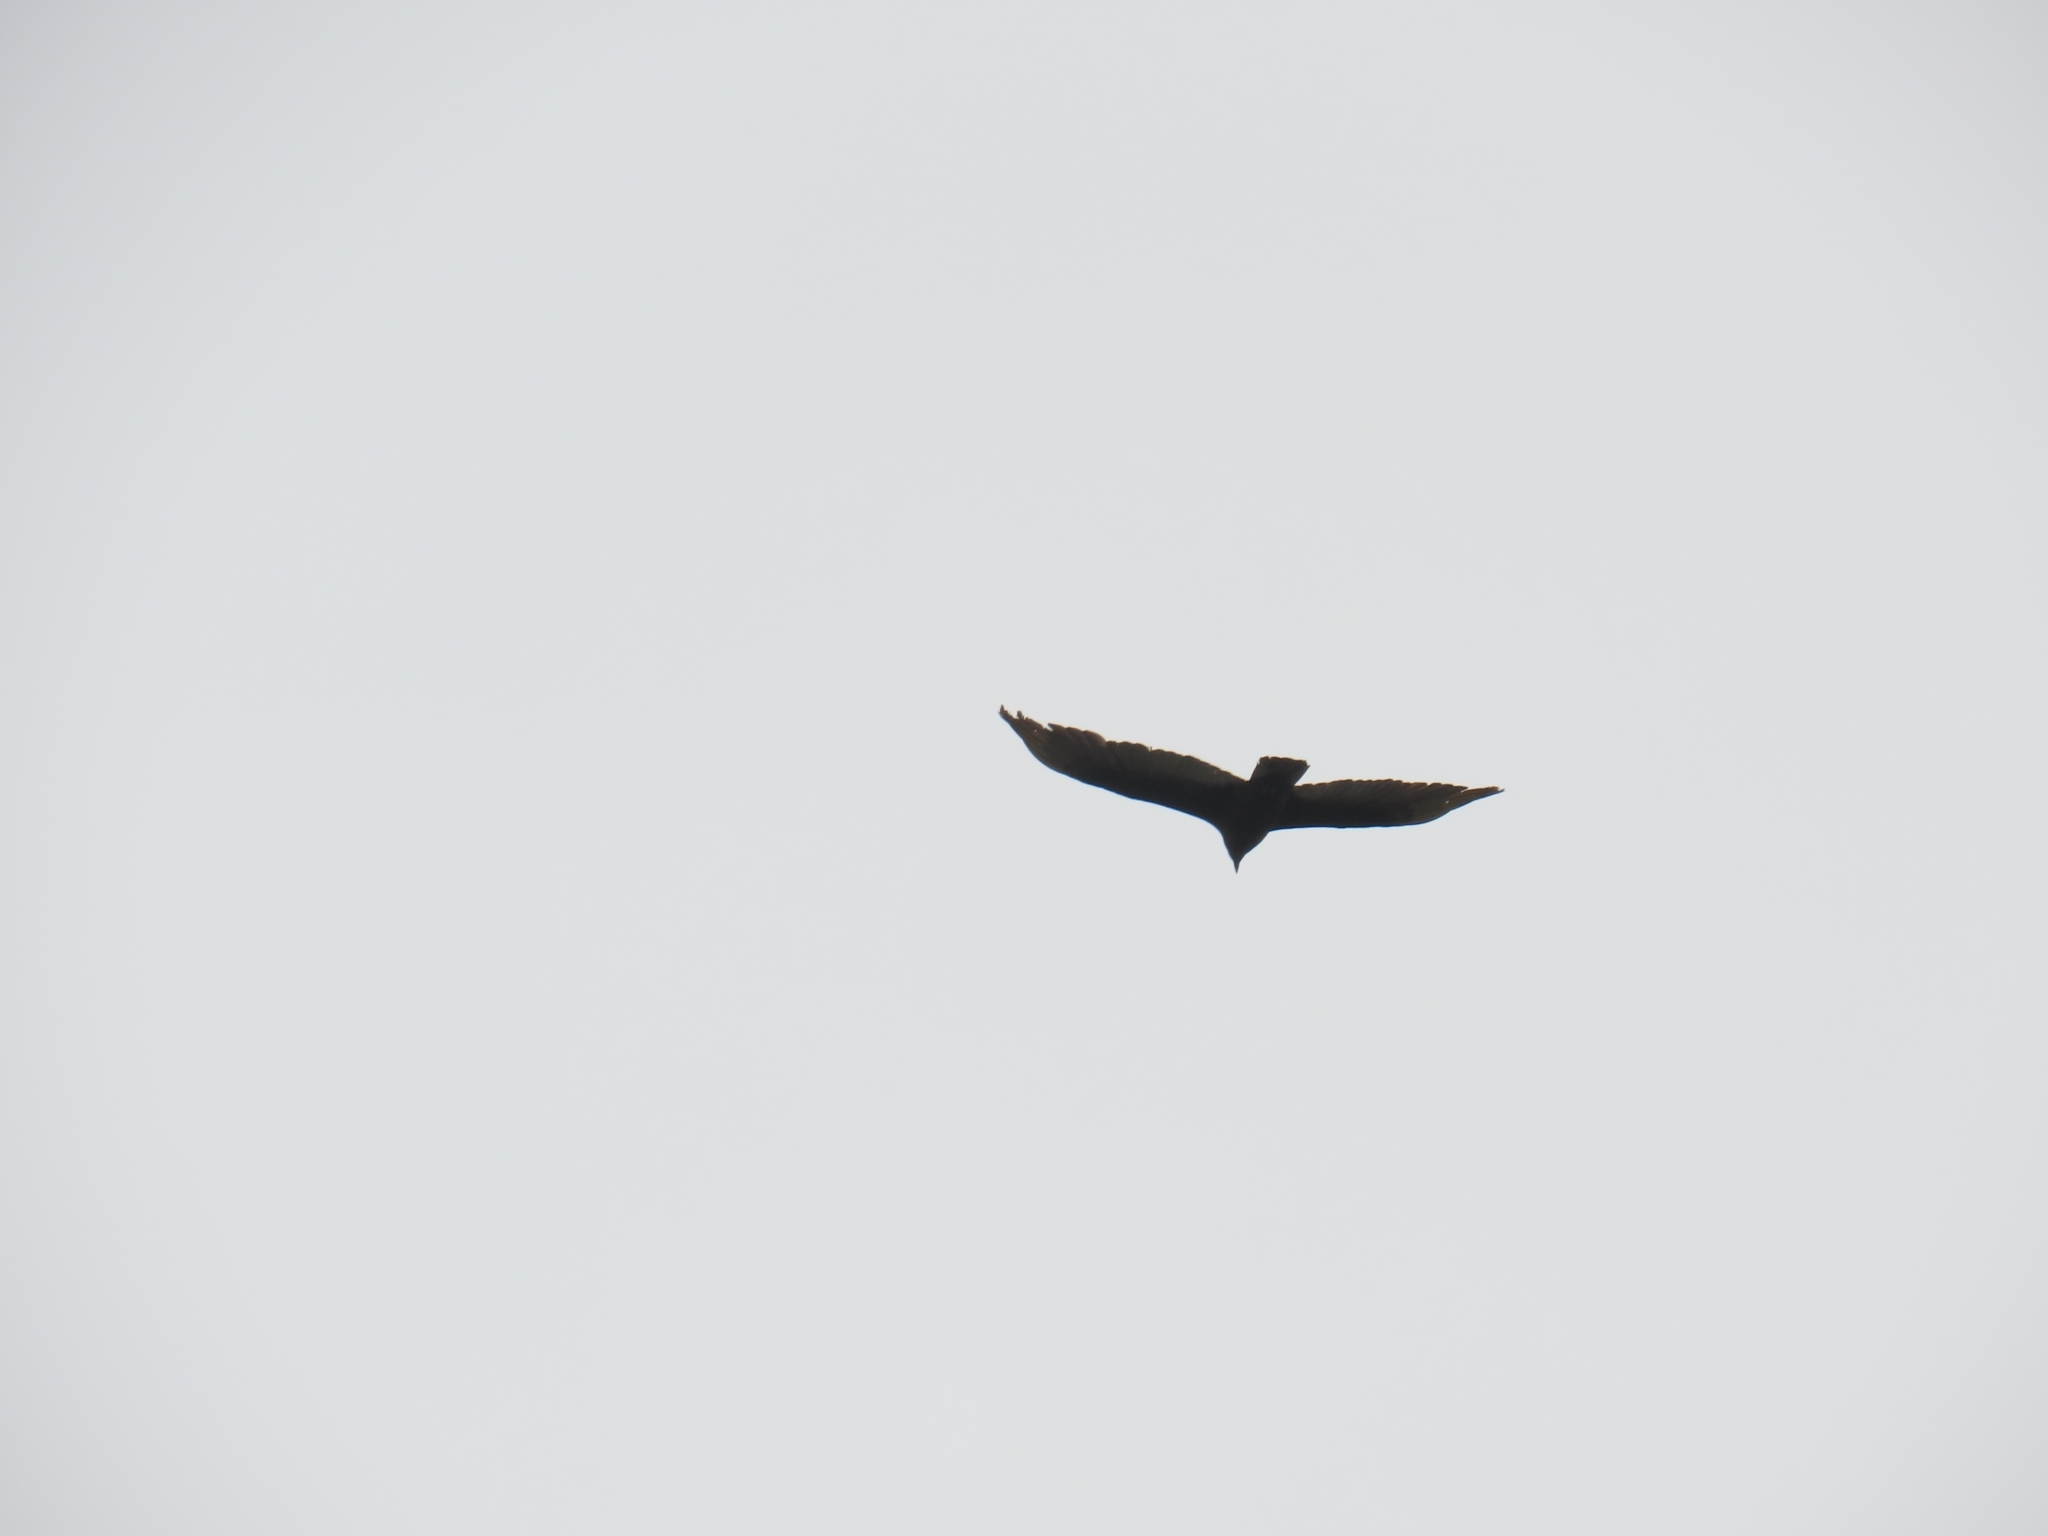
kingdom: Animalia
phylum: Chordata
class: Aves
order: Accipitriformes
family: Cathartidae
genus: Cathartes
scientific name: Cathartes aura
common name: Turkey vulture
